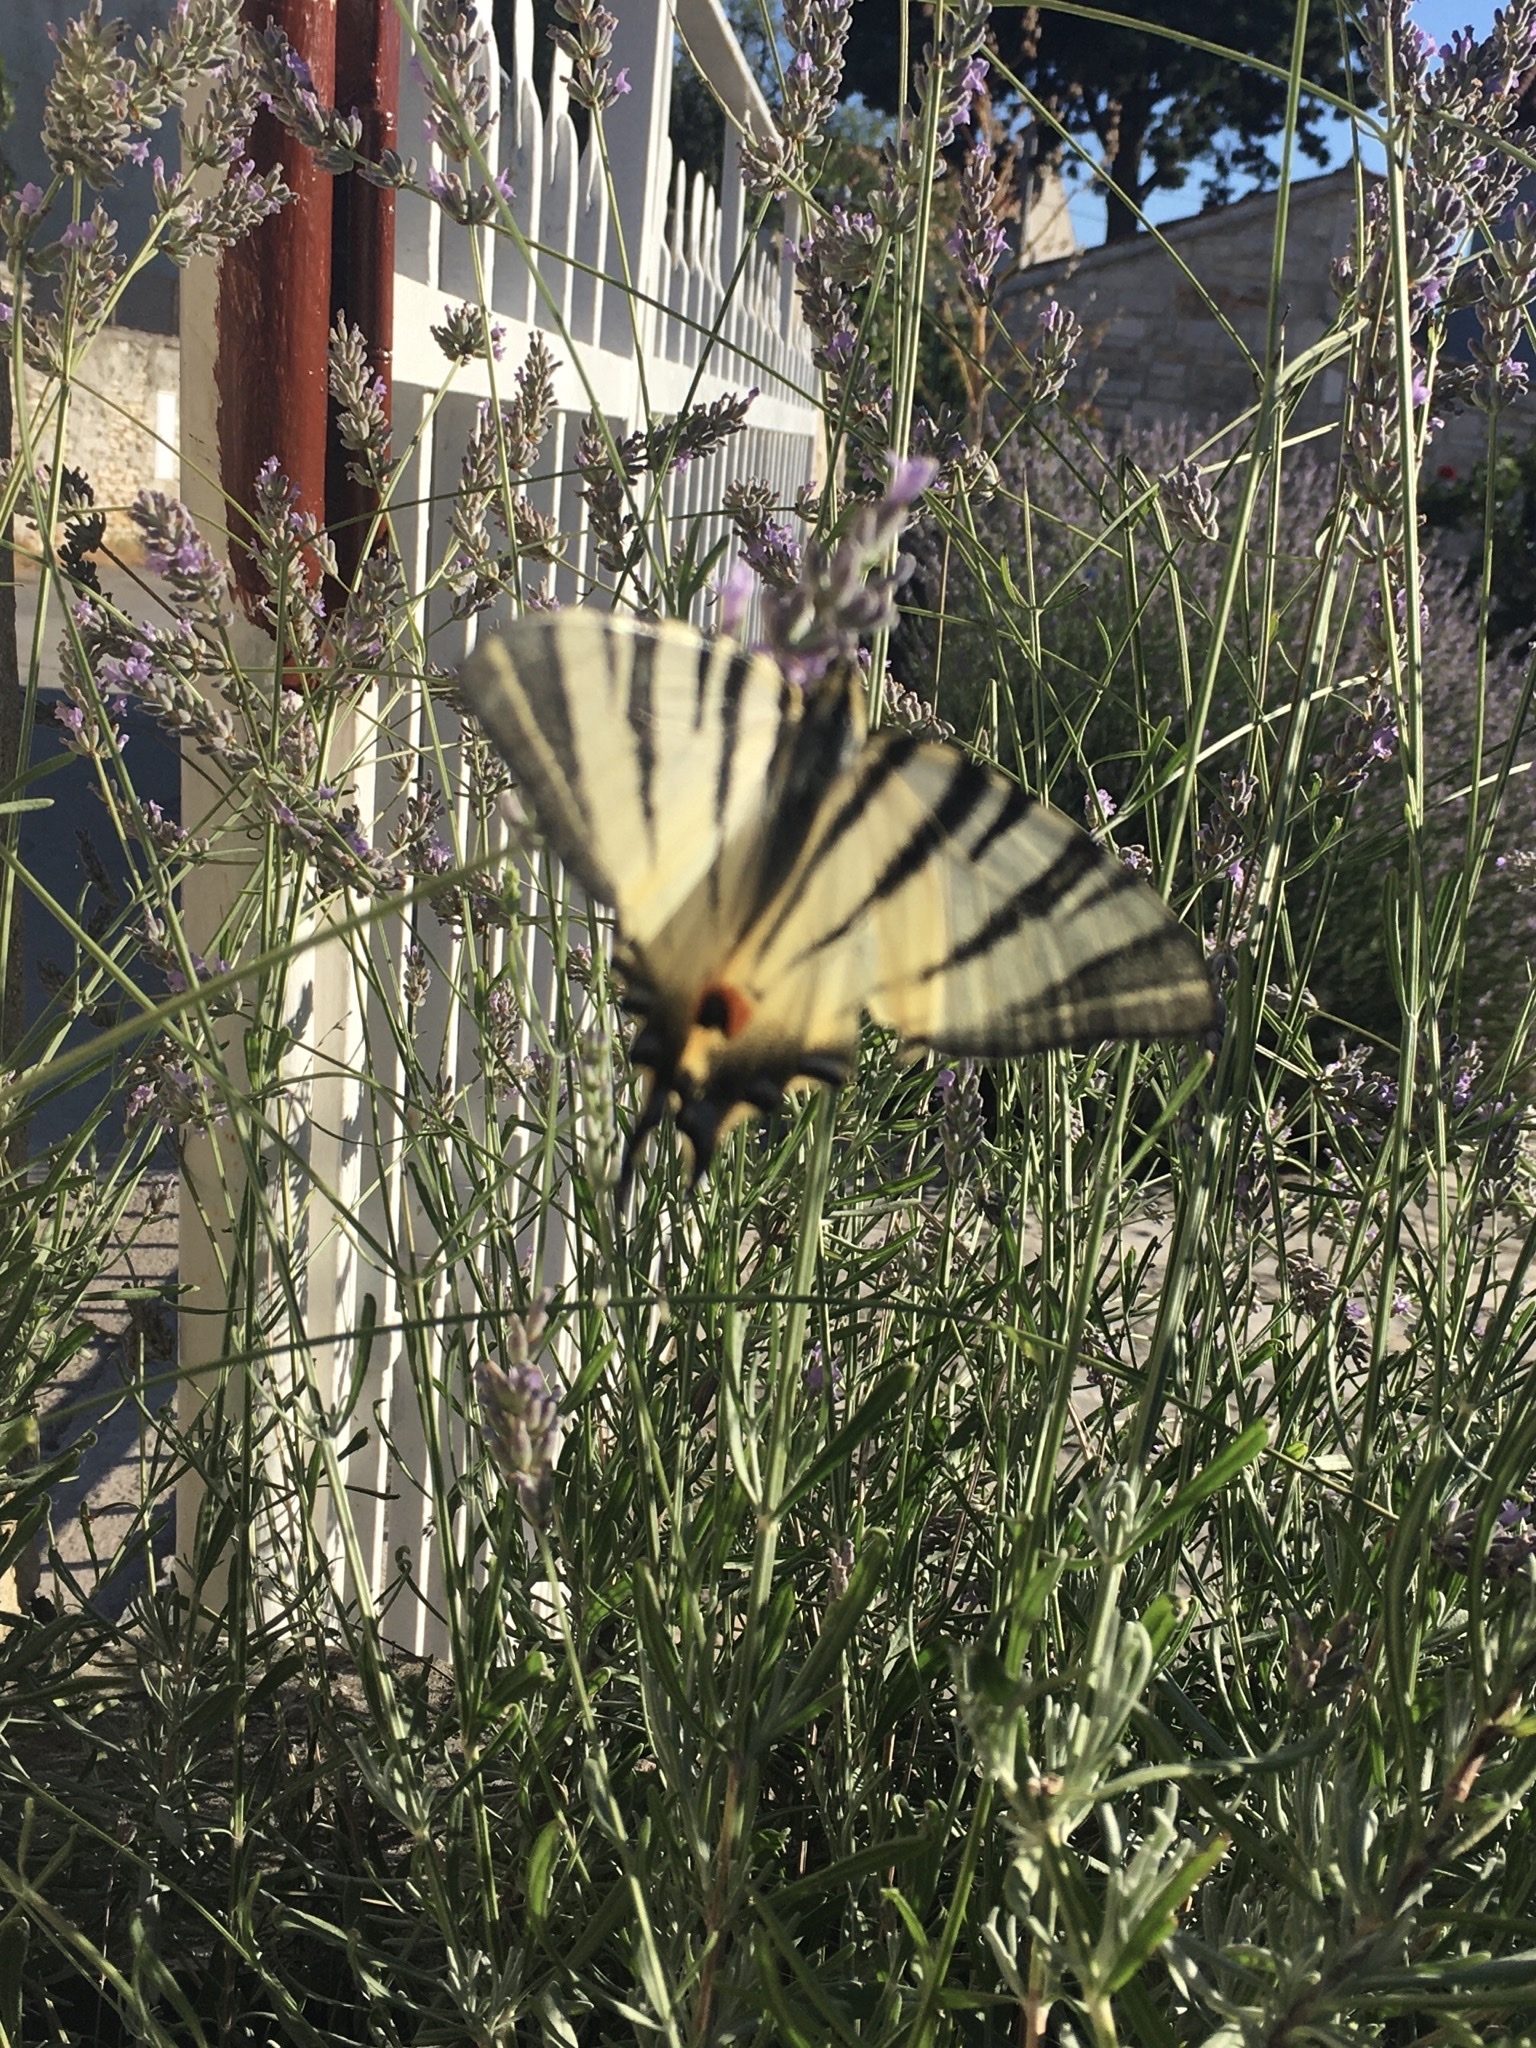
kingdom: Animalia
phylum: Arthropoda
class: Insecta
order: Lepidoptera
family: Papilionidae
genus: Iphiclides
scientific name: Iphiclides podalirius
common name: Scarce swallowtail
